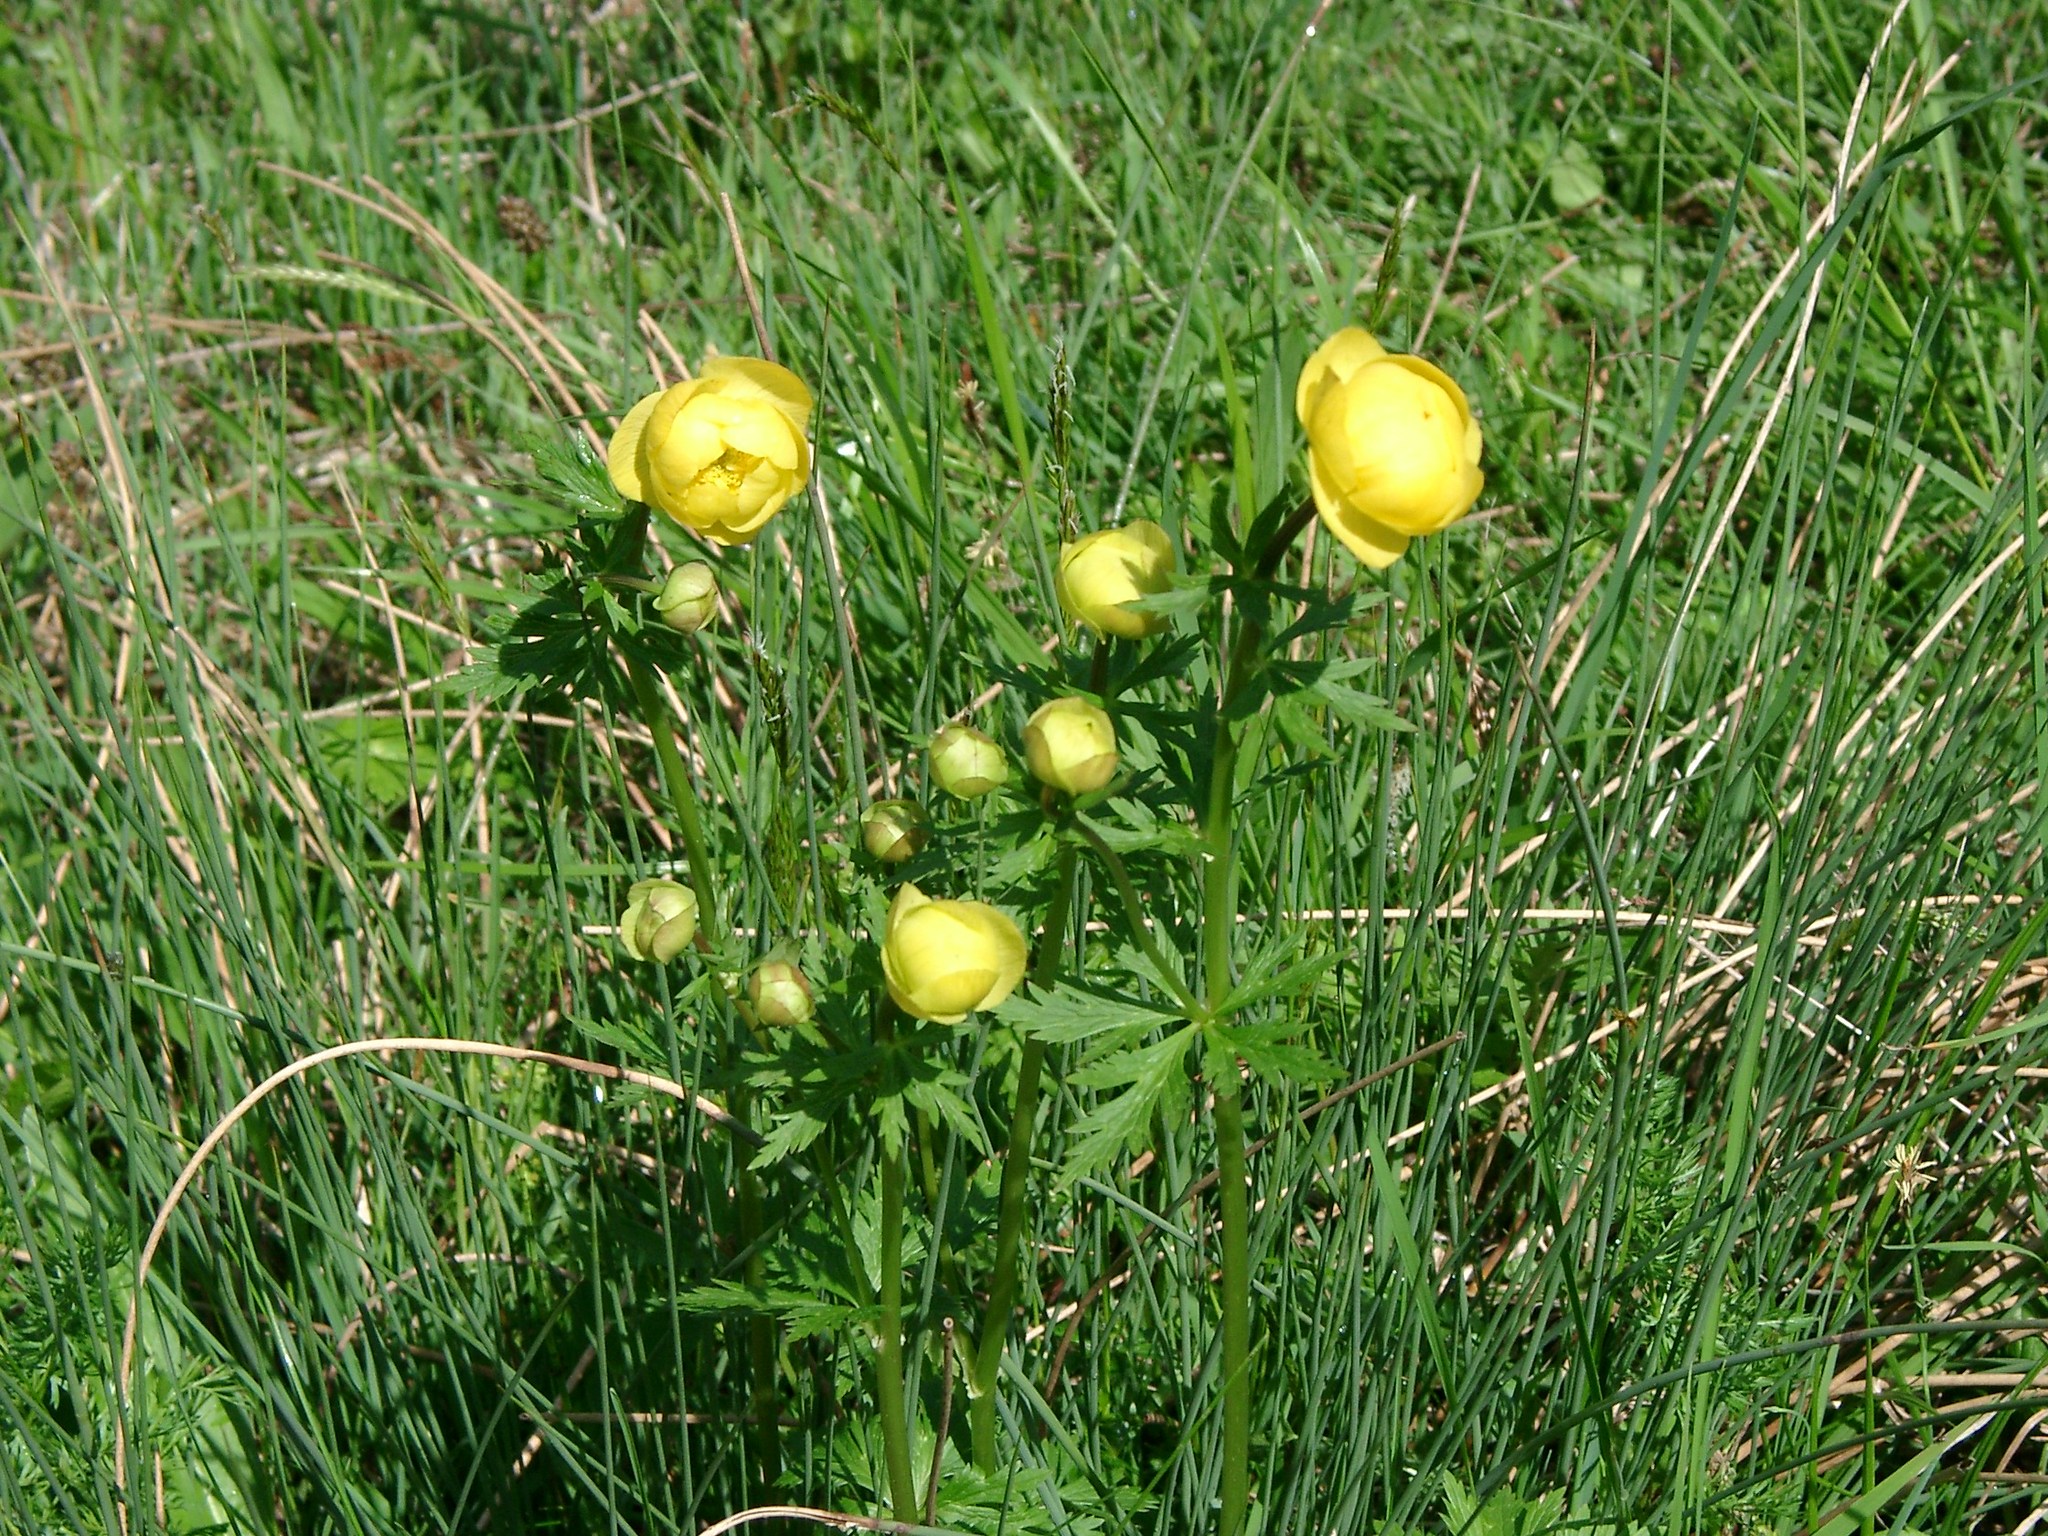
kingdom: Plantae
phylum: Tracheophyta
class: Magnoliopsida
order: Ranunculales
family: Ranunculaceae
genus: Trollius
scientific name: Trollius europaeus
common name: European globeflower
